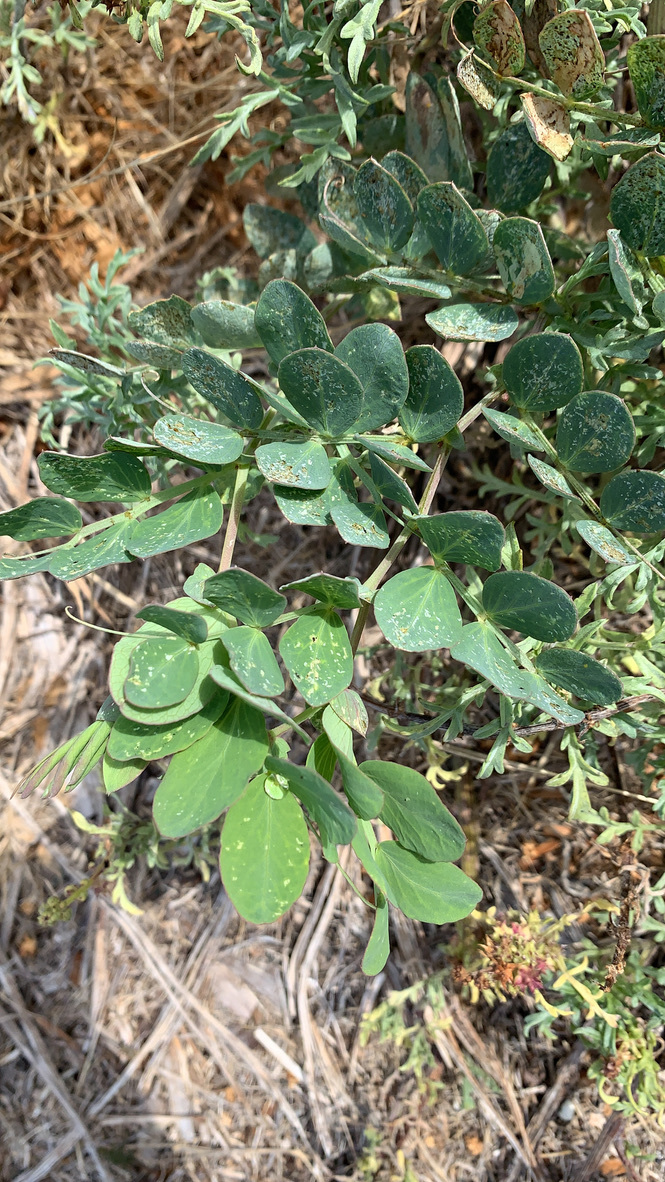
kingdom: Plantae
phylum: Tracheophyta
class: Magnoliopsida
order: Fabales
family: Fabaceae
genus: Lathyrus
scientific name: Lathyrus japonicus
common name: Sea pea
